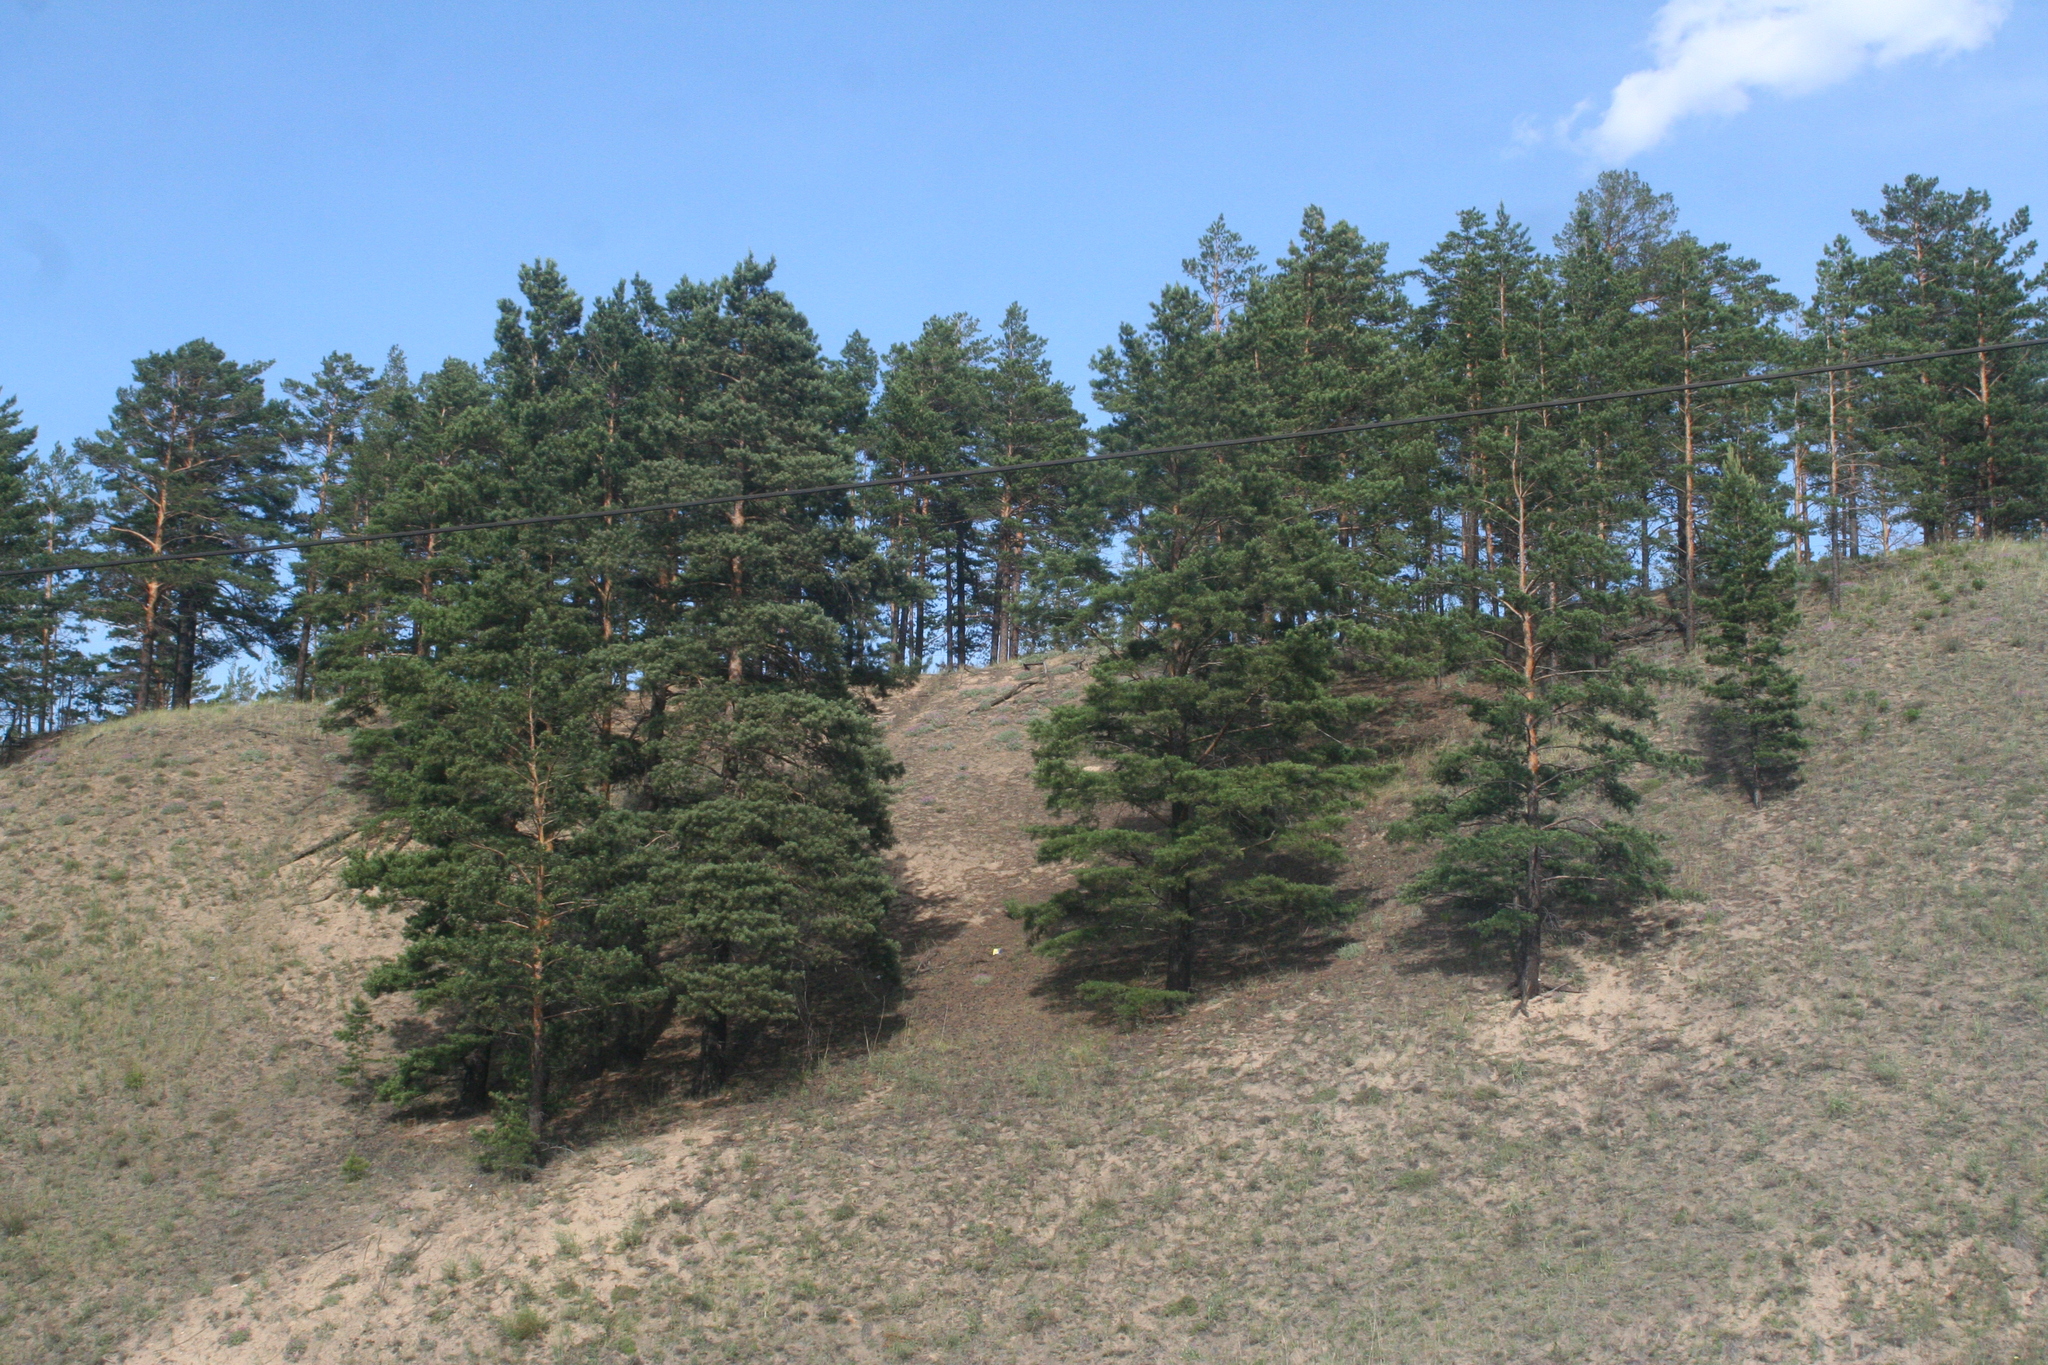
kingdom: Plantae
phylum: Tracheophyta
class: Pinopsida
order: Pinales
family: Pinaceae
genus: Pinus
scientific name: Pinus sylvestris
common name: Scots pine
